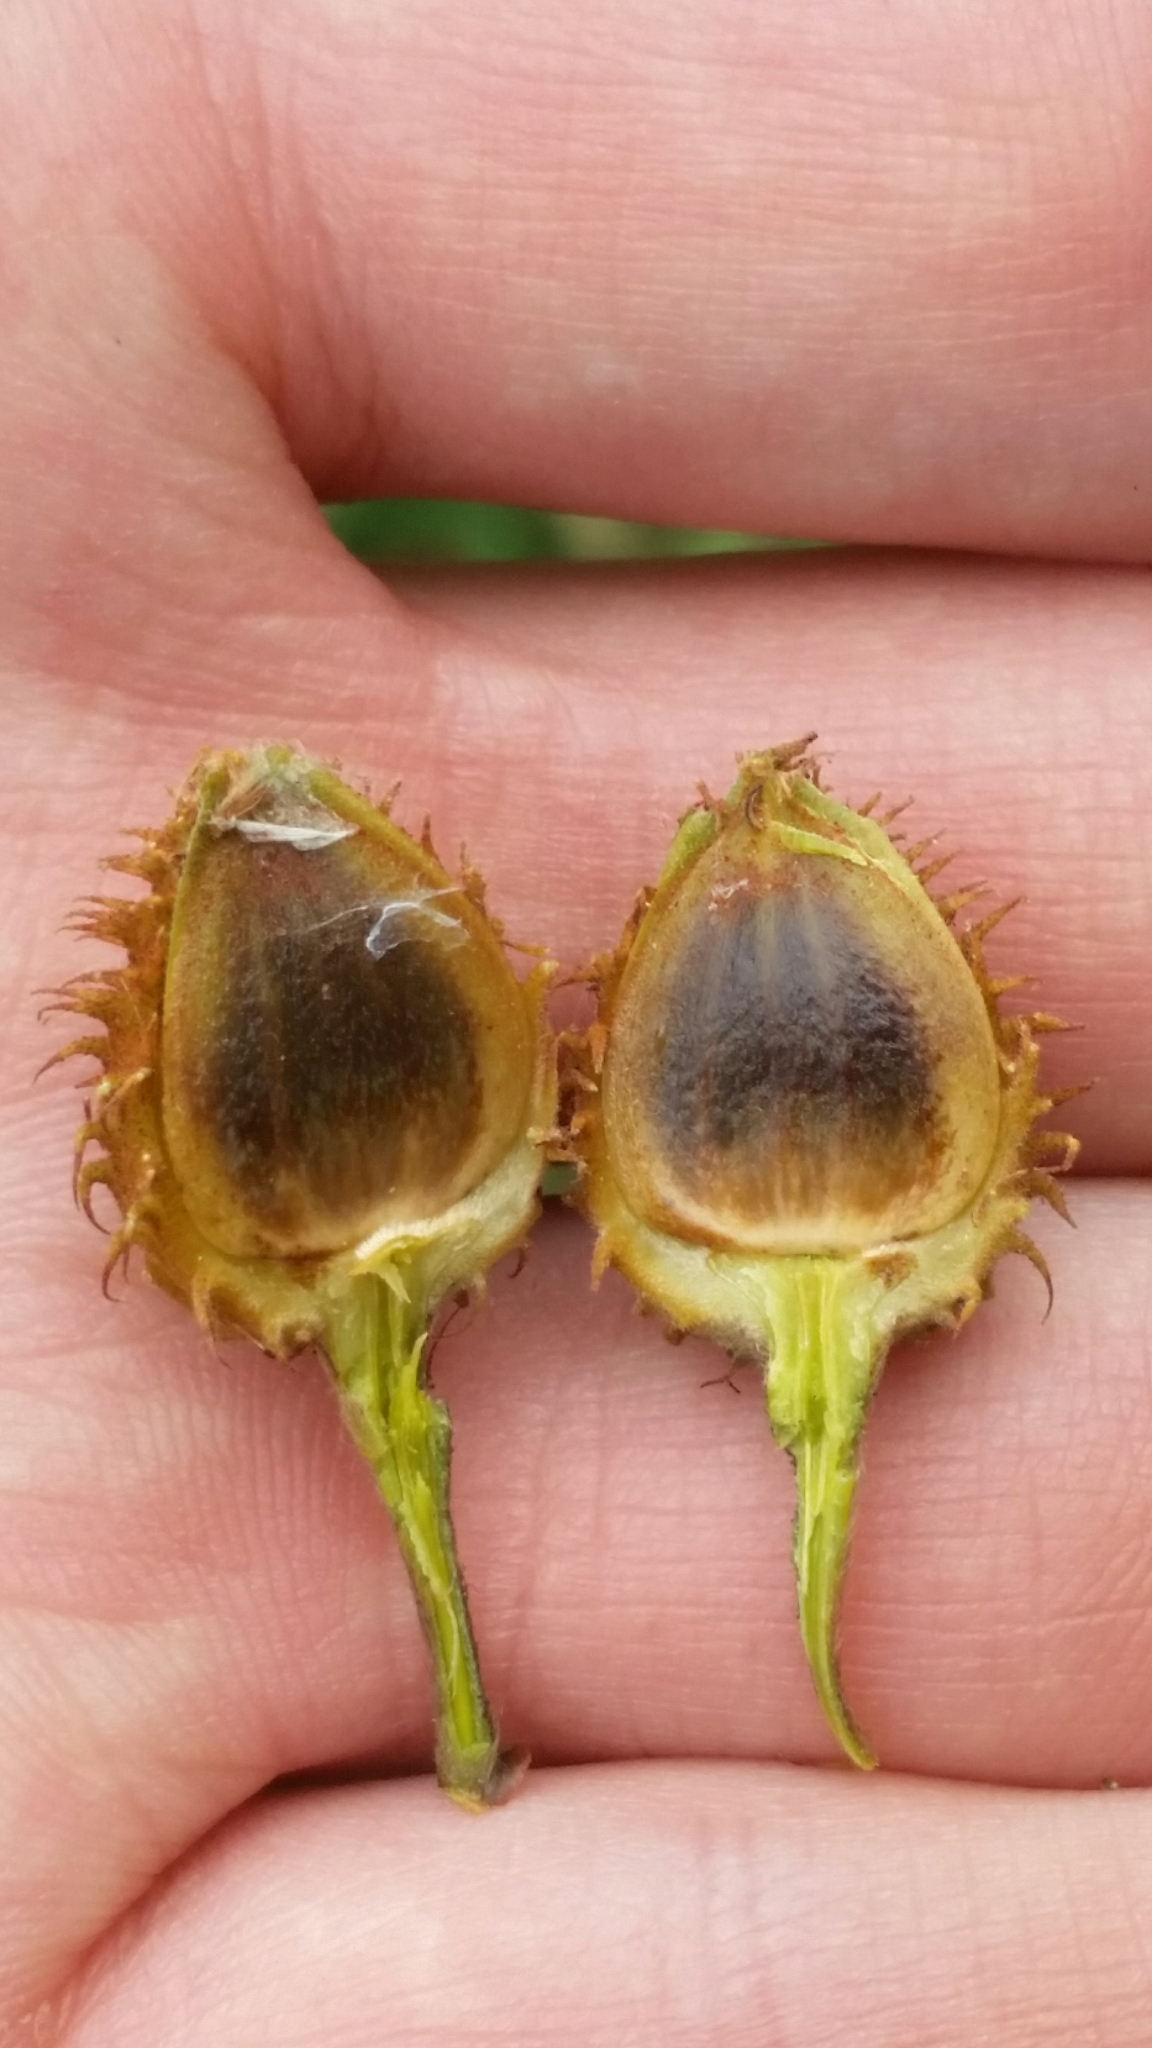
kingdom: Plantae
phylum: Tracheophyta
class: Magnoliopsida
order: Fagales
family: Fagaceae
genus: Fagus
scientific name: Fagus grandifolia
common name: American beech
